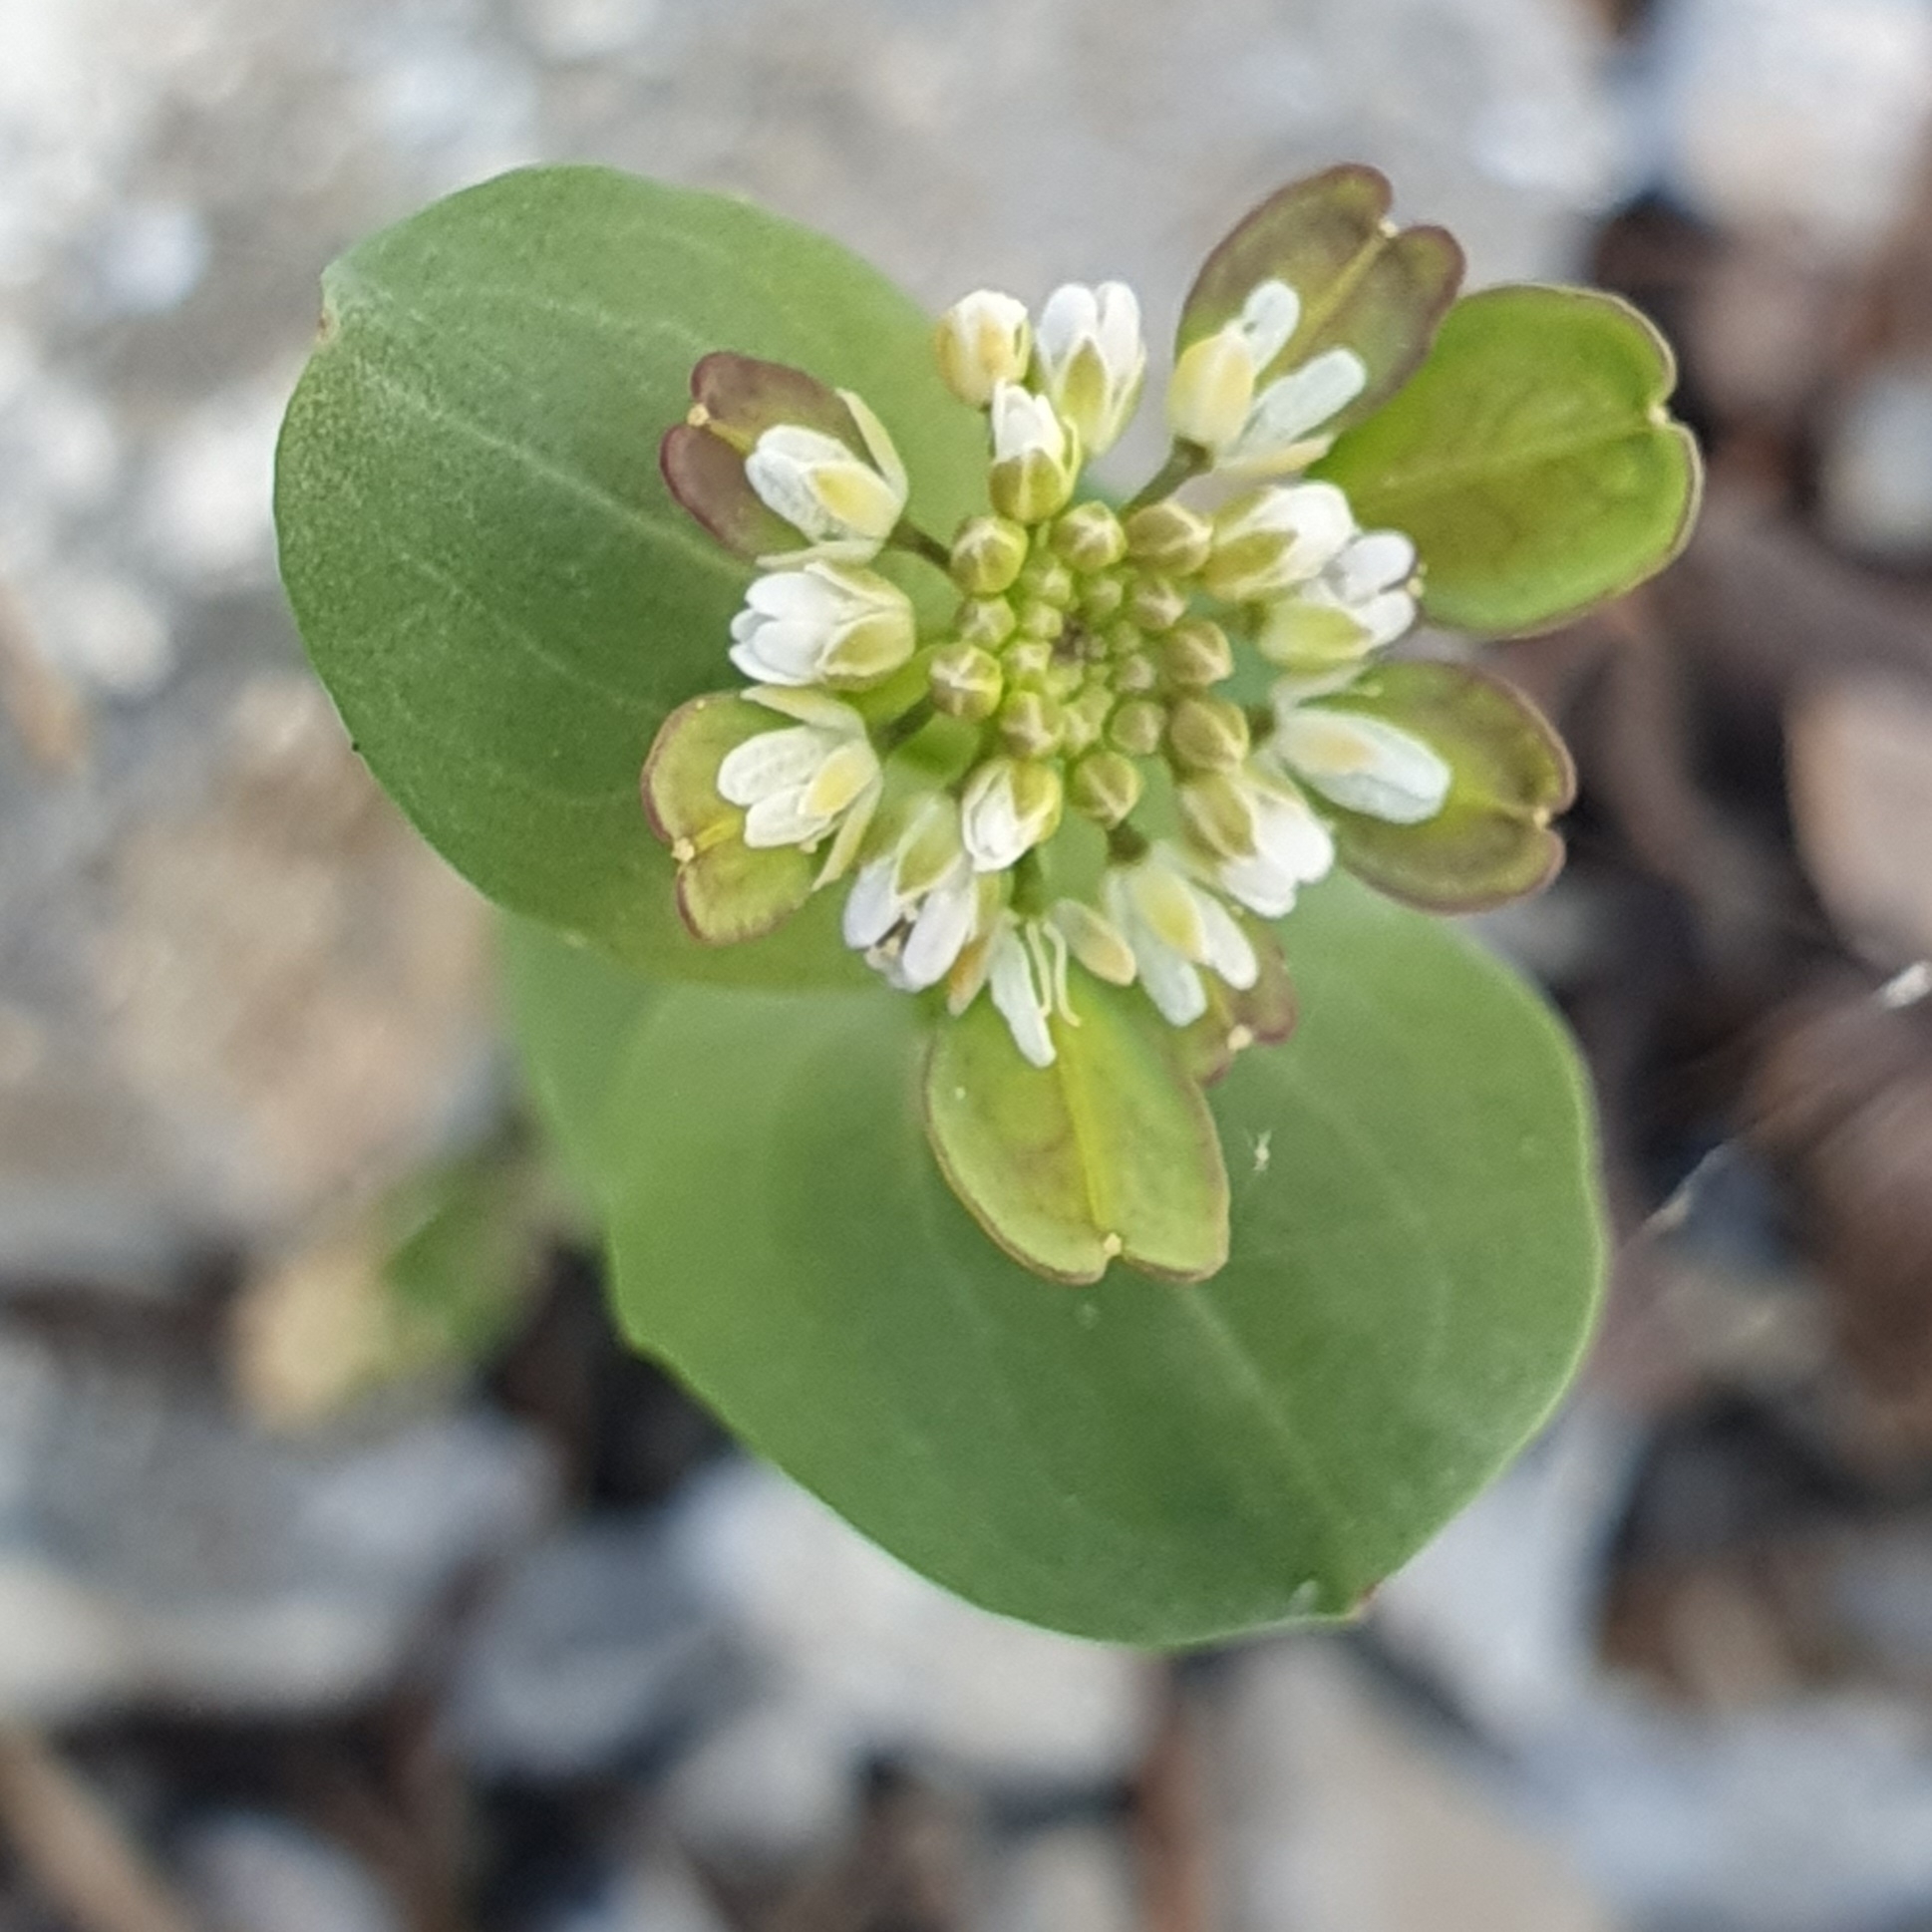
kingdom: Plantae
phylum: Tracheophyta
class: Magnoliopsida
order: Brassicales
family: Brassicaceae
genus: Noccaea
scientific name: Noccaea
